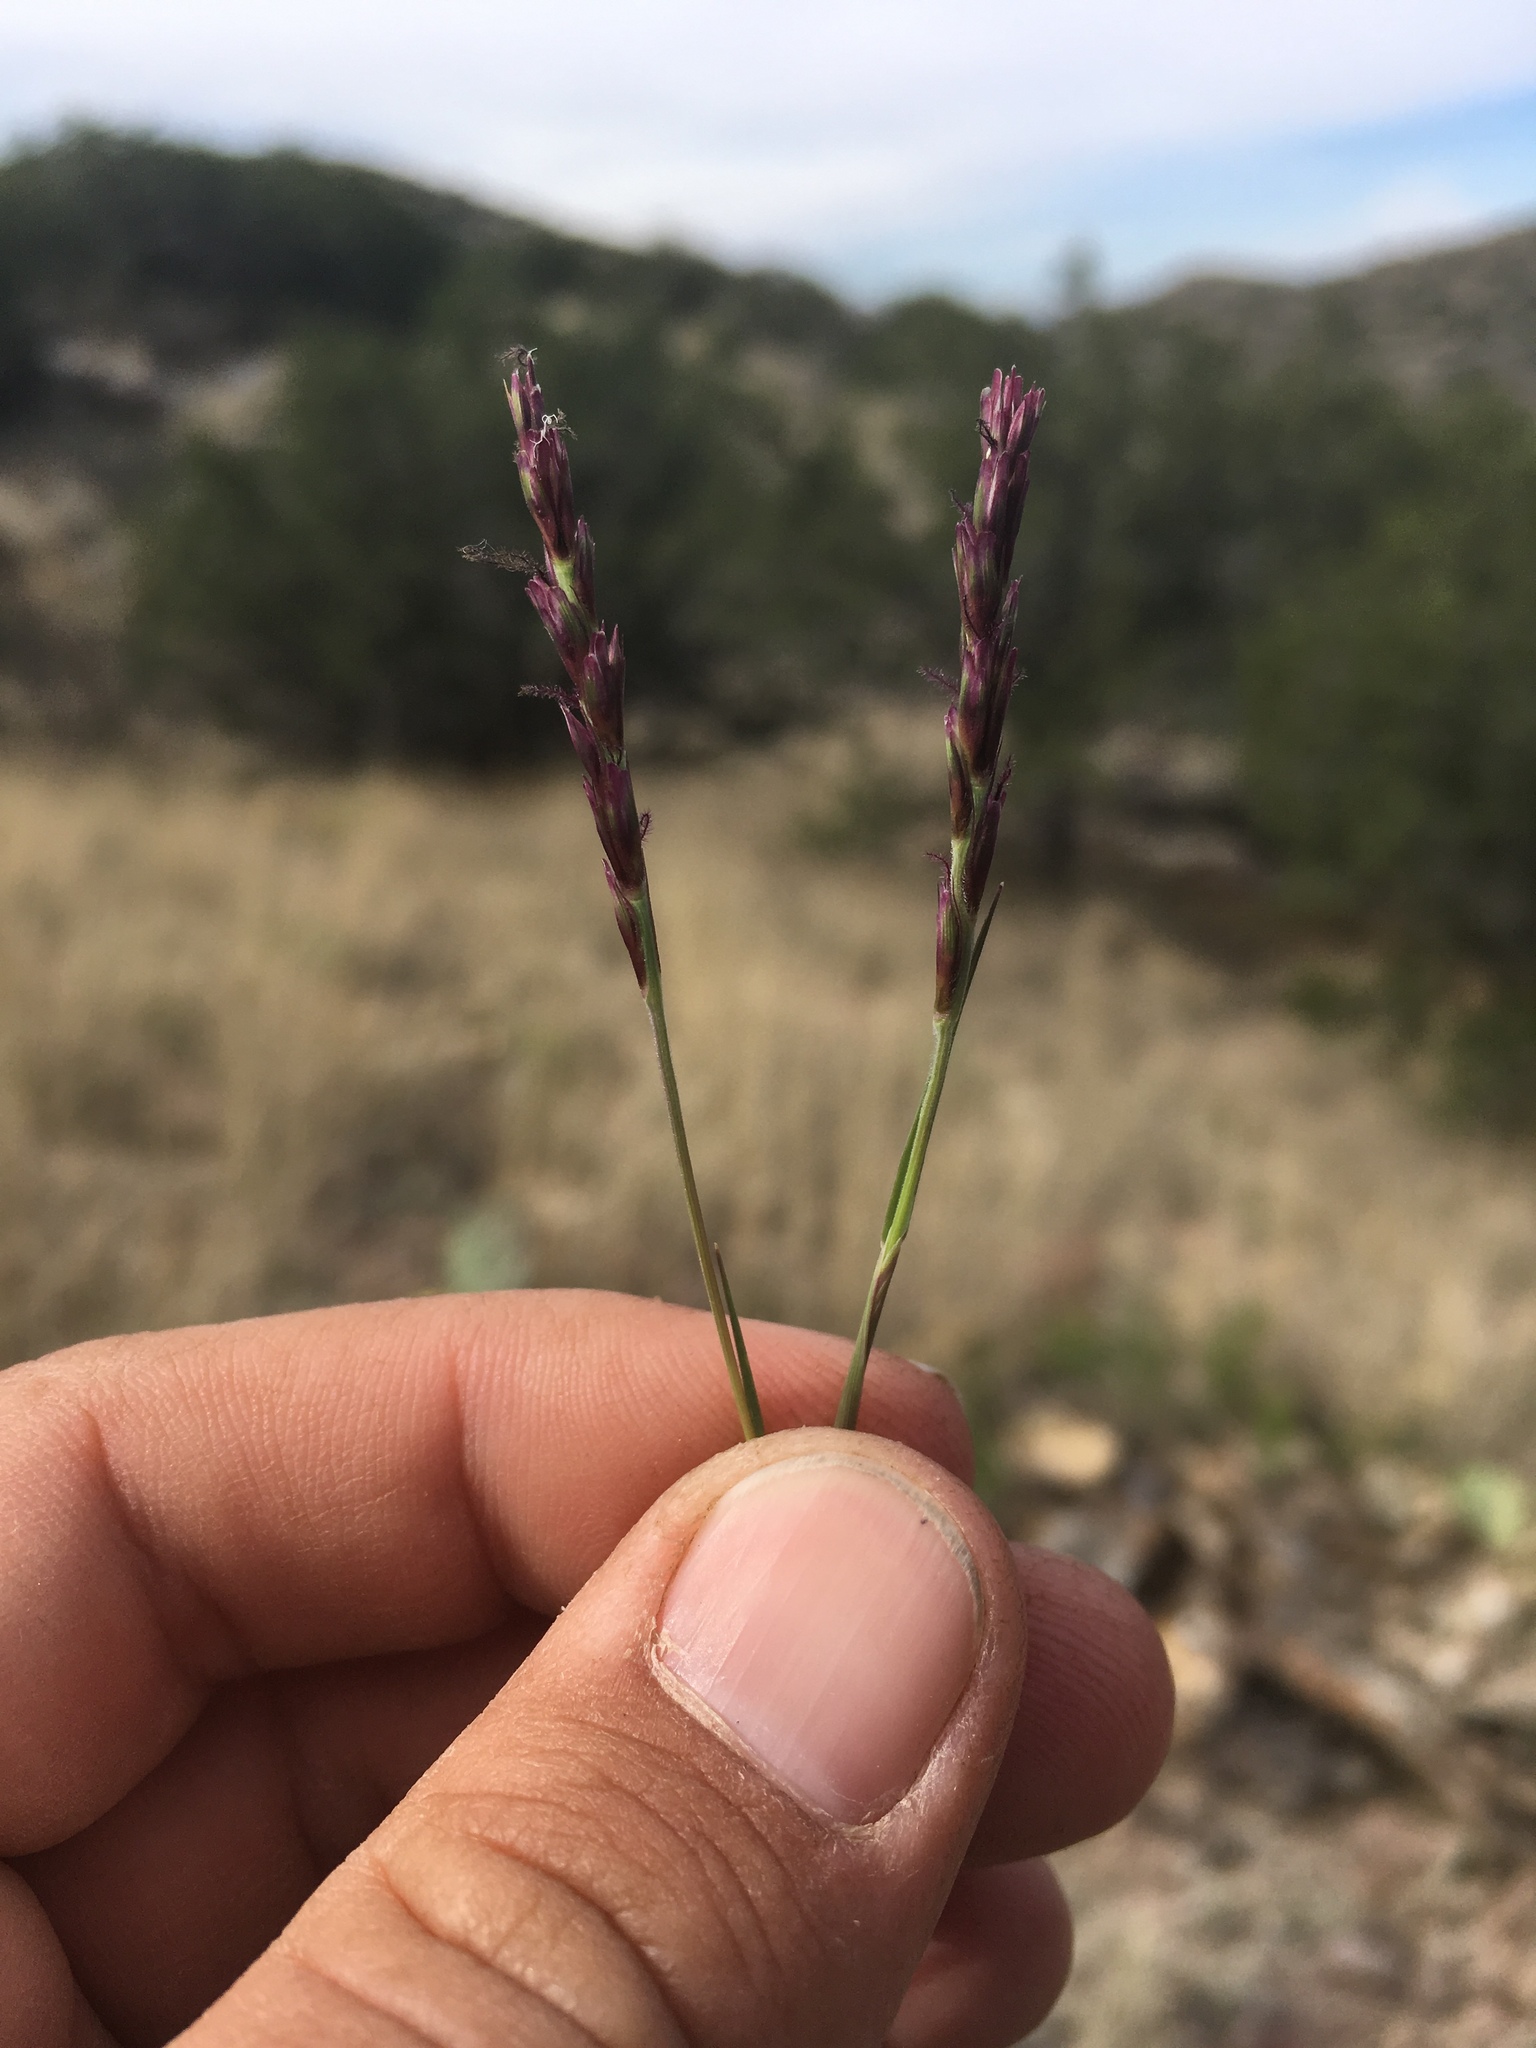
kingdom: Plantae
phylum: Tracheophyta
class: Liliopsida
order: Poales
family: Poaceae
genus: Hilaria
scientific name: Hilaria belangeri
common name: Curly-mesquite
